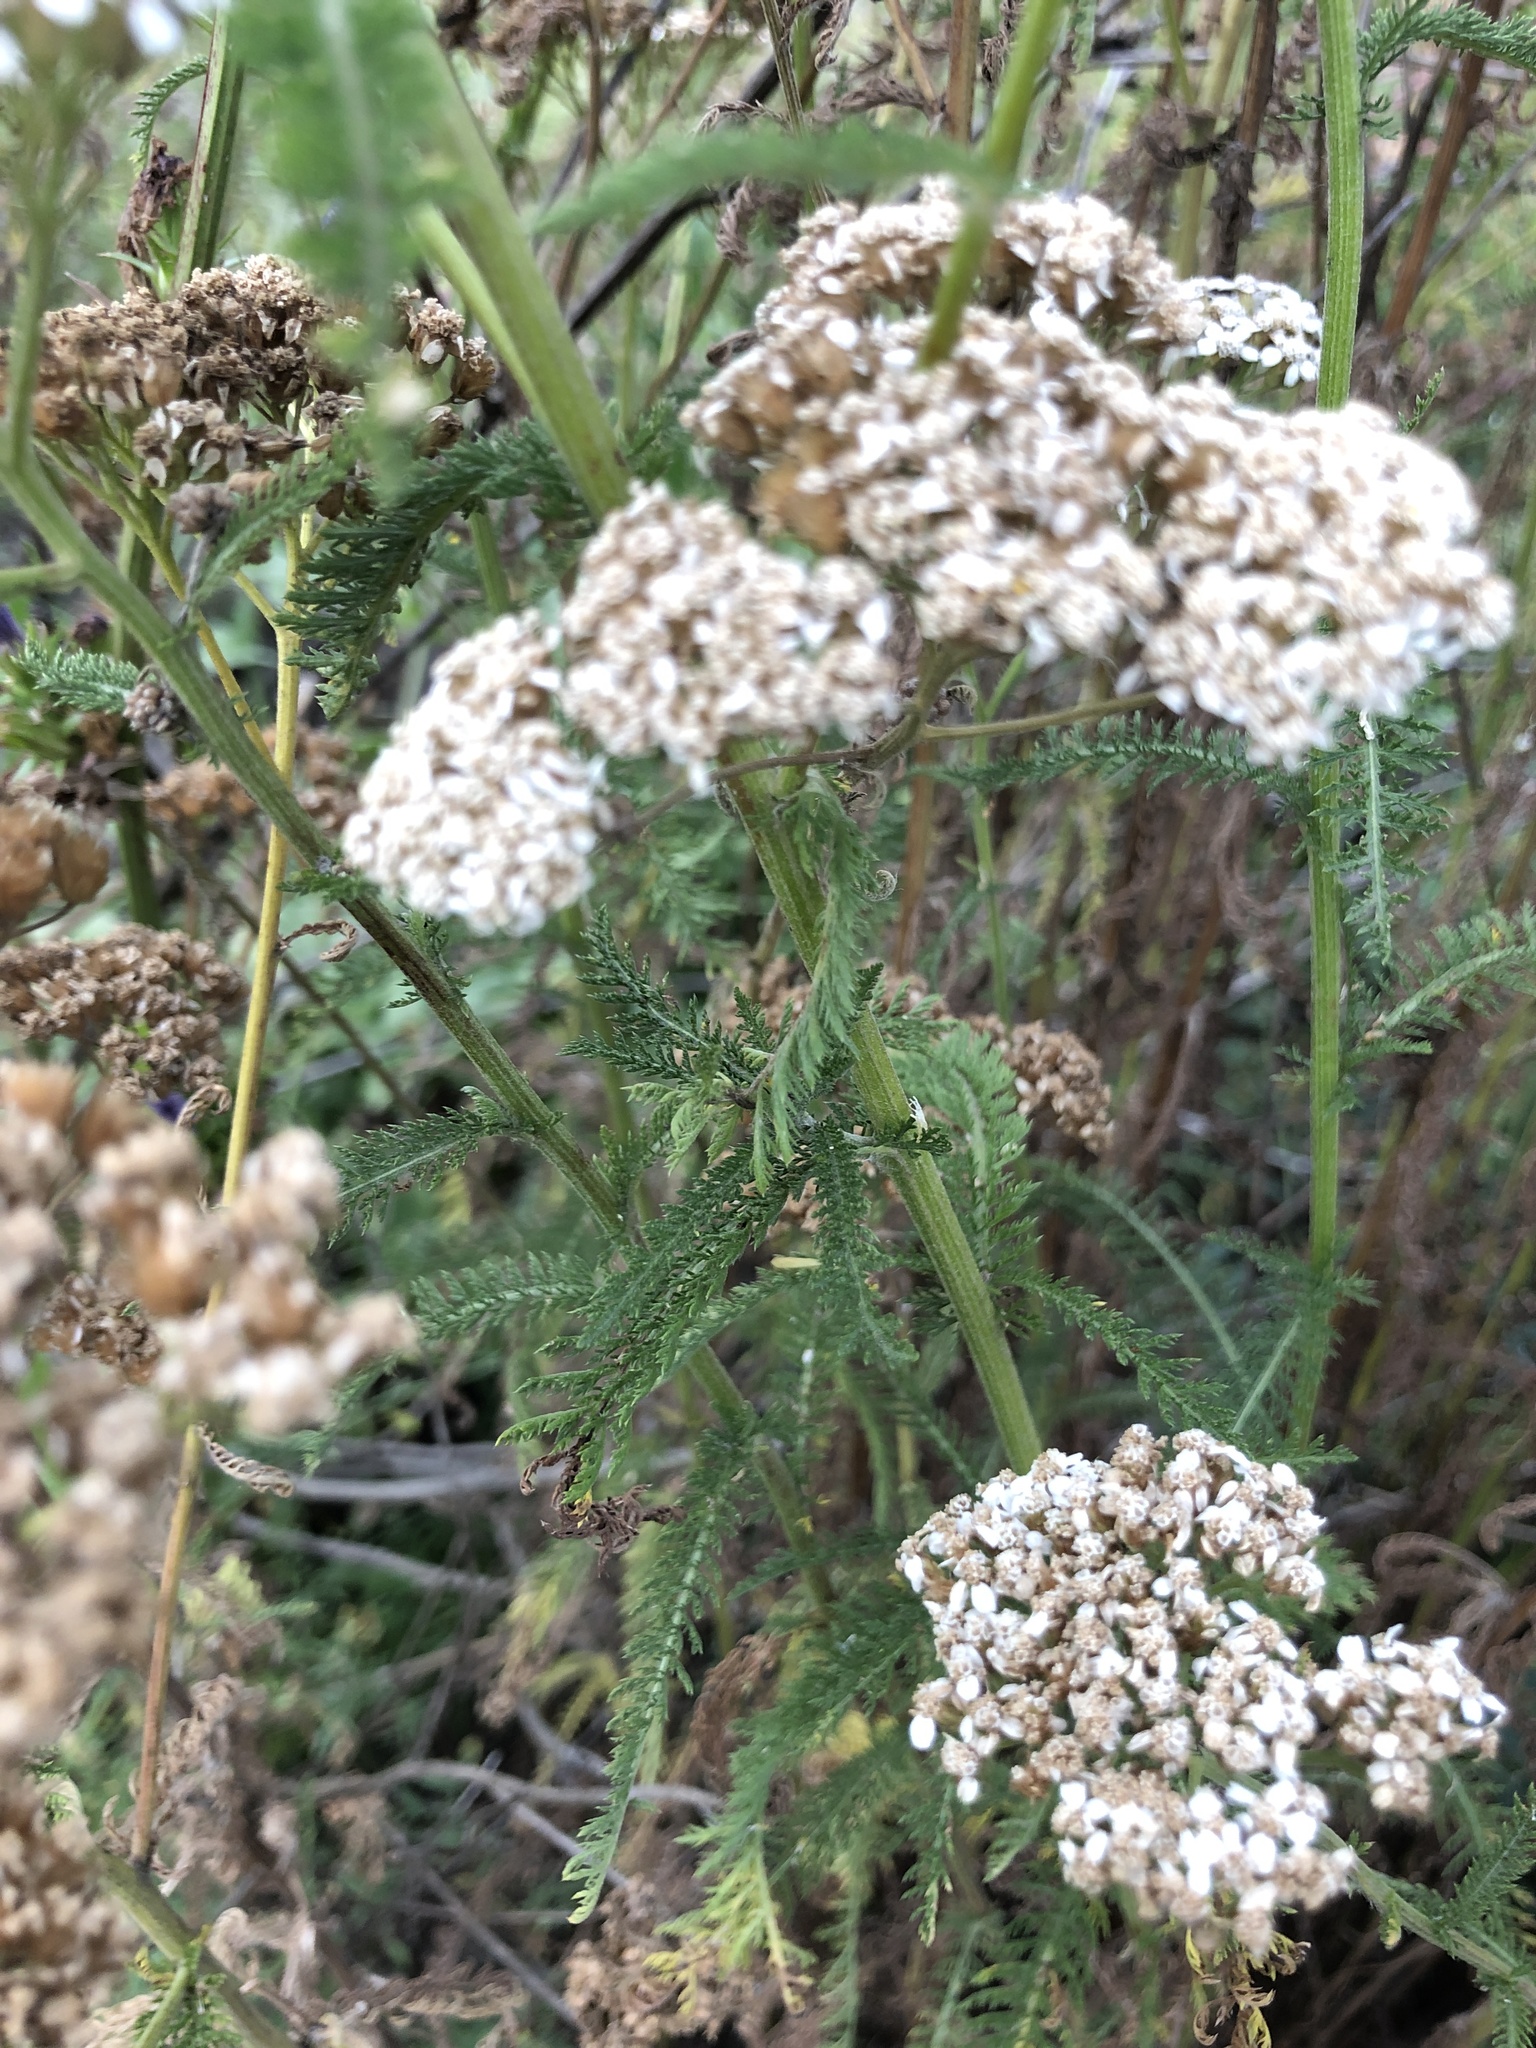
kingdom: Plantae
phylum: Tracheophyta
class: Magnoliopsida
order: Asterales
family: Asteraceae
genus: Achillea
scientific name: Achillea millefolium
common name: Yarrow
